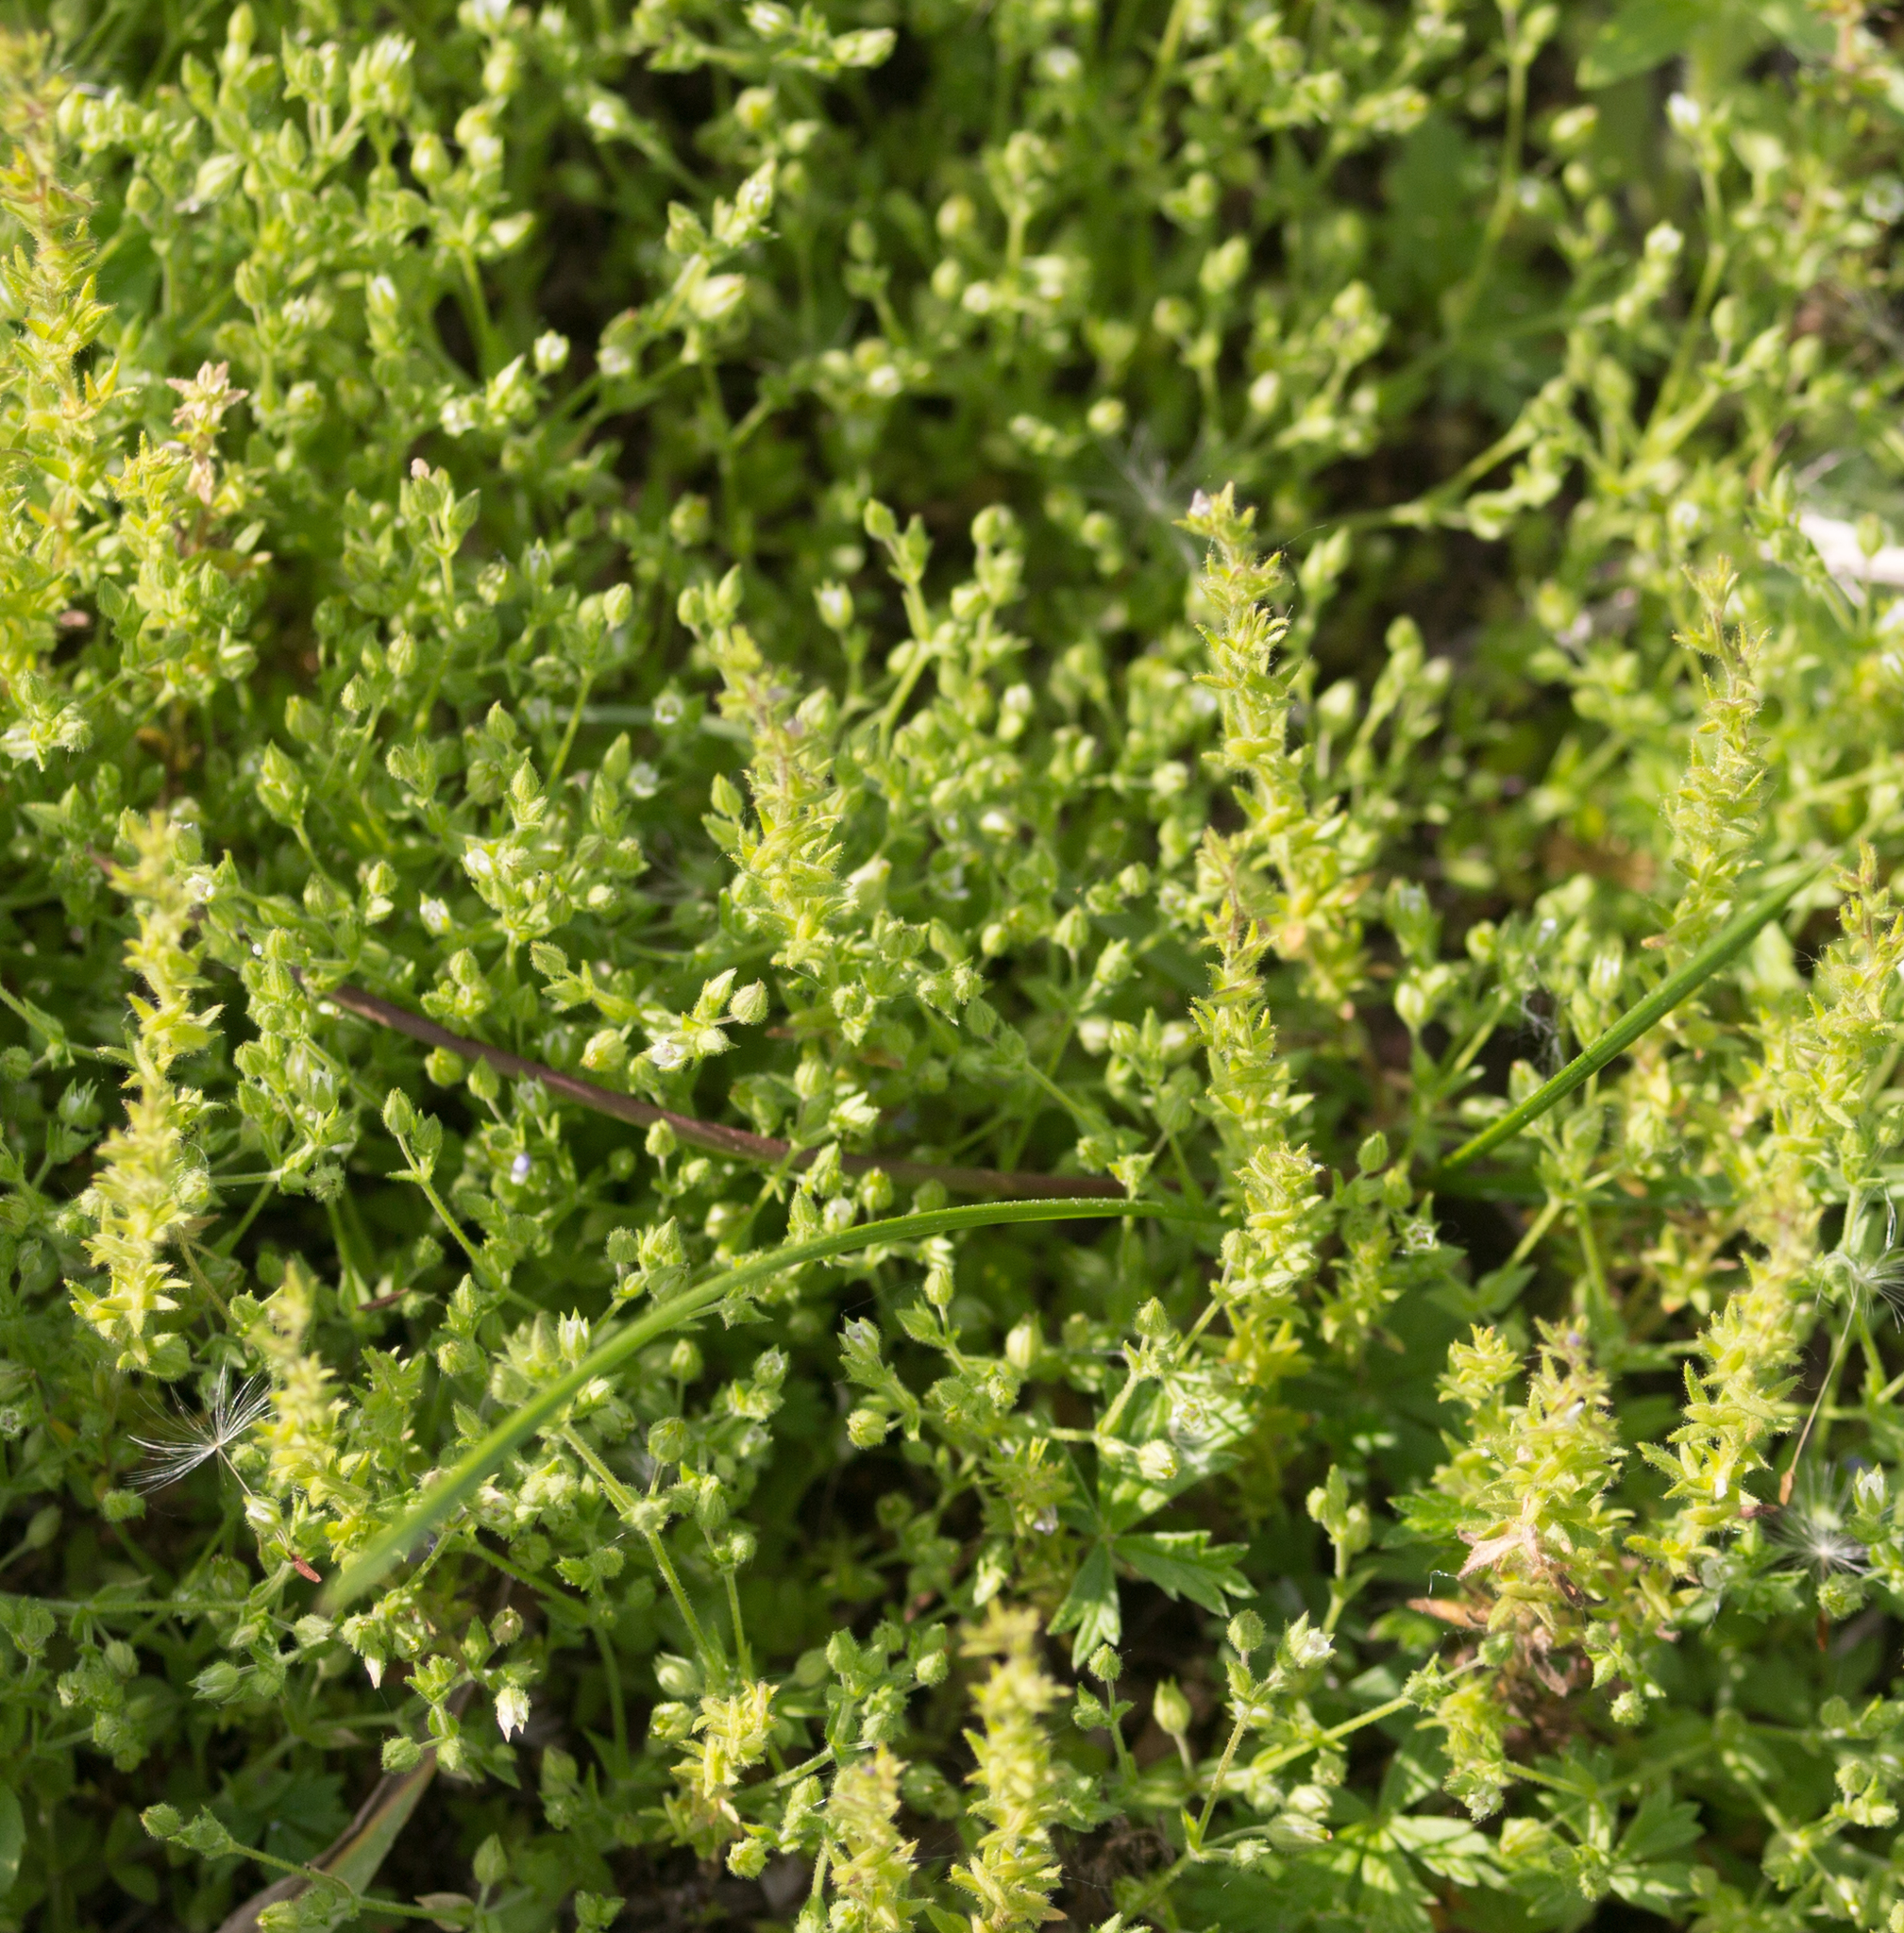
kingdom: Plantae
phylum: Tracheophyta
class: Magnoliopsida
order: Caryophyllales
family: Caryophyllaceae
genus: Arenaria
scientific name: Arenaria serpyllifolia
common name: Thyme-leaved sandwort
